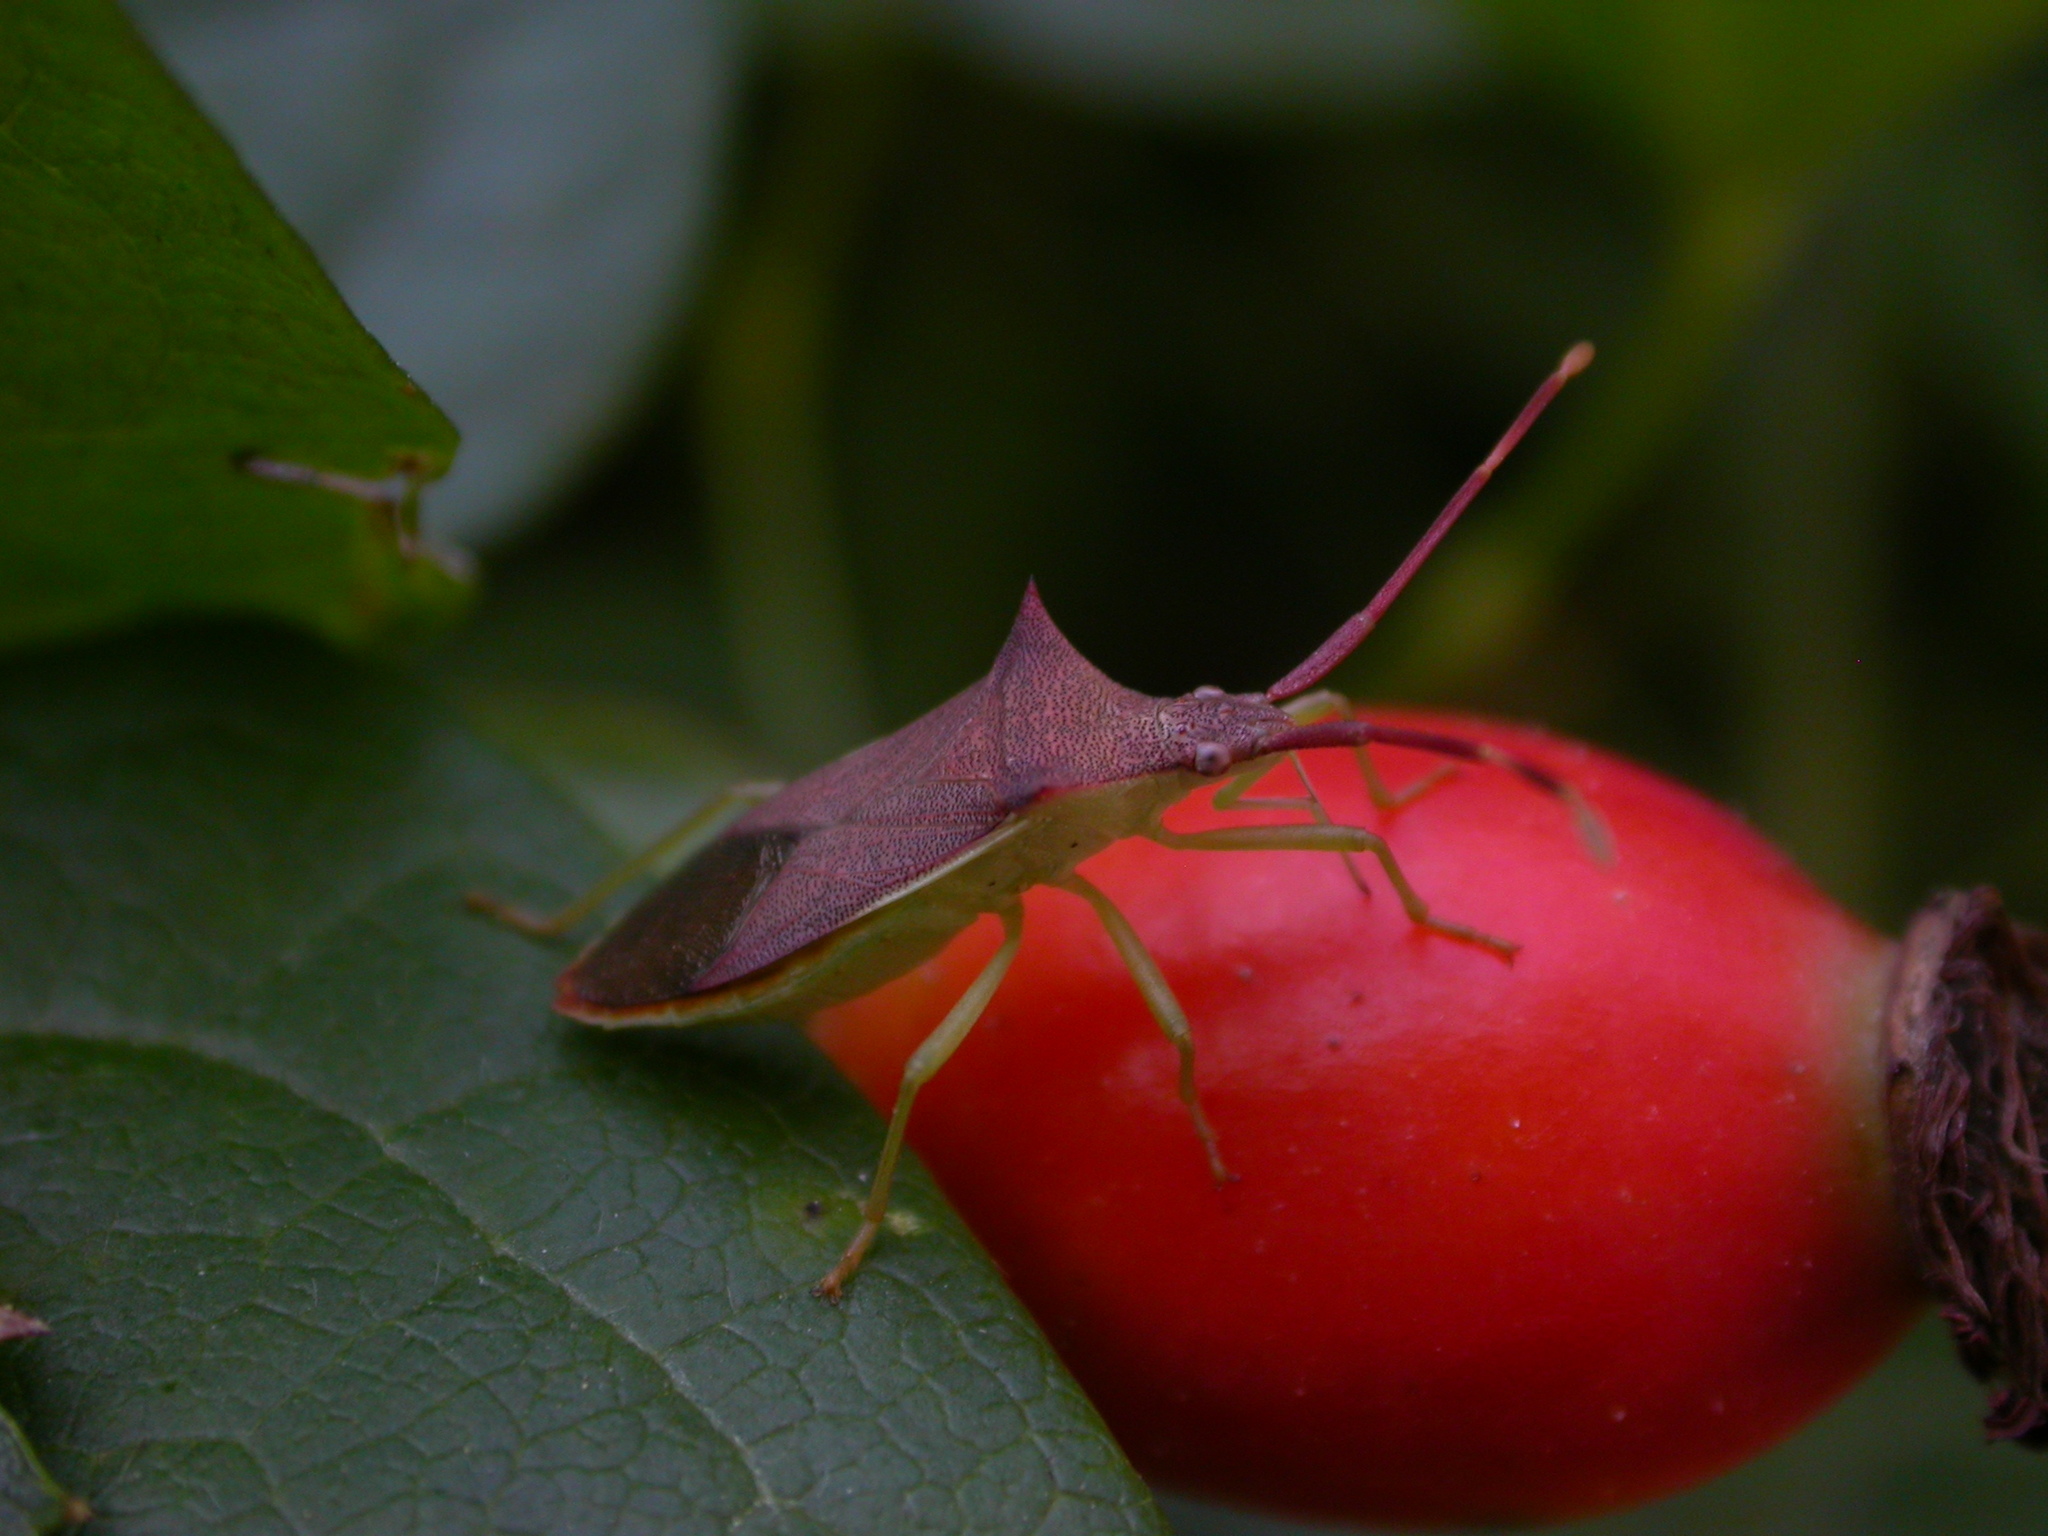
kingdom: Animalia
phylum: Arthropoda
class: Insecta
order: Hemiptera
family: Coreidae
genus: Gonocerus
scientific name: Gonocerus insidiator
